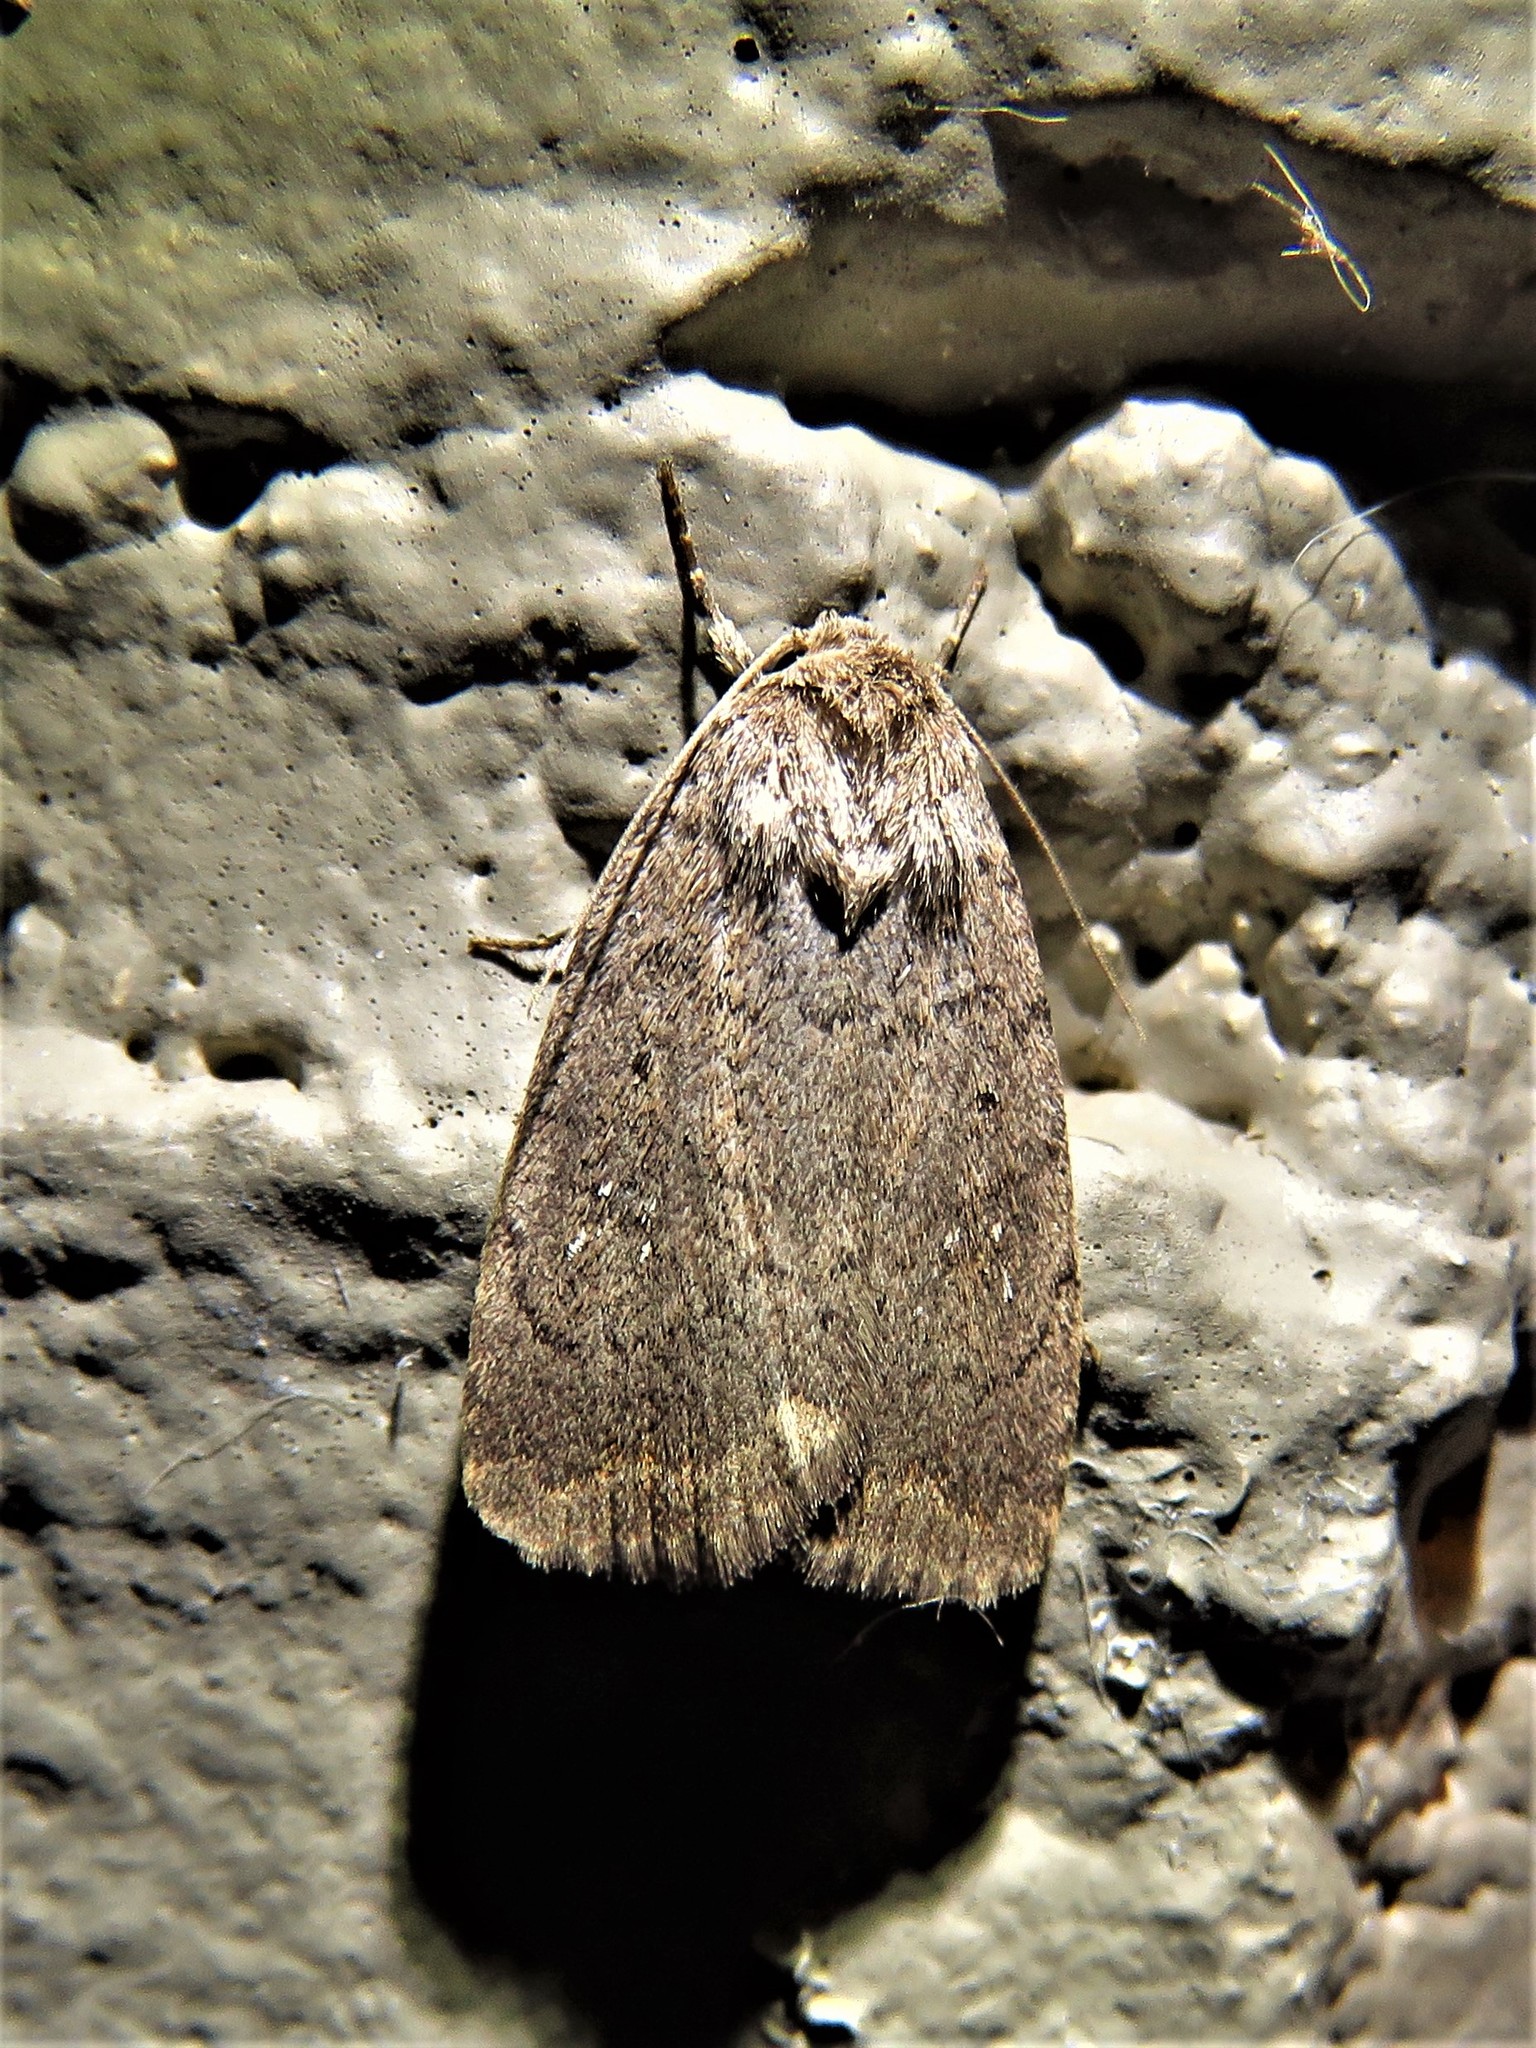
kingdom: Animalia
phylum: Arthropoda
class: Insecta
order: Lepidoptera
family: Noctuidae
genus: Athetis
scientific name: Athetis tarda
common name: Slowpoke moth
